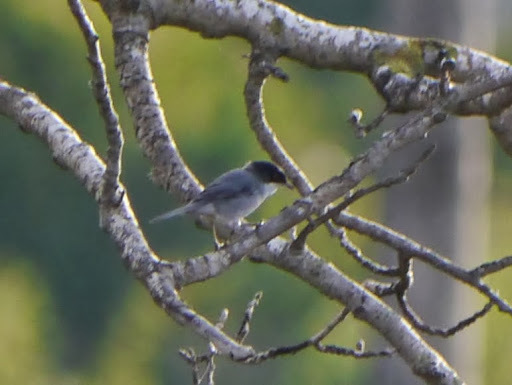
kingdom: Animalia
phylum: Chordata
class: Aves
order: Passeriformes
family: Sylviidae
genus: Curruca
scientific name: Curruca melanocephala
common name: Sardinian warbler
